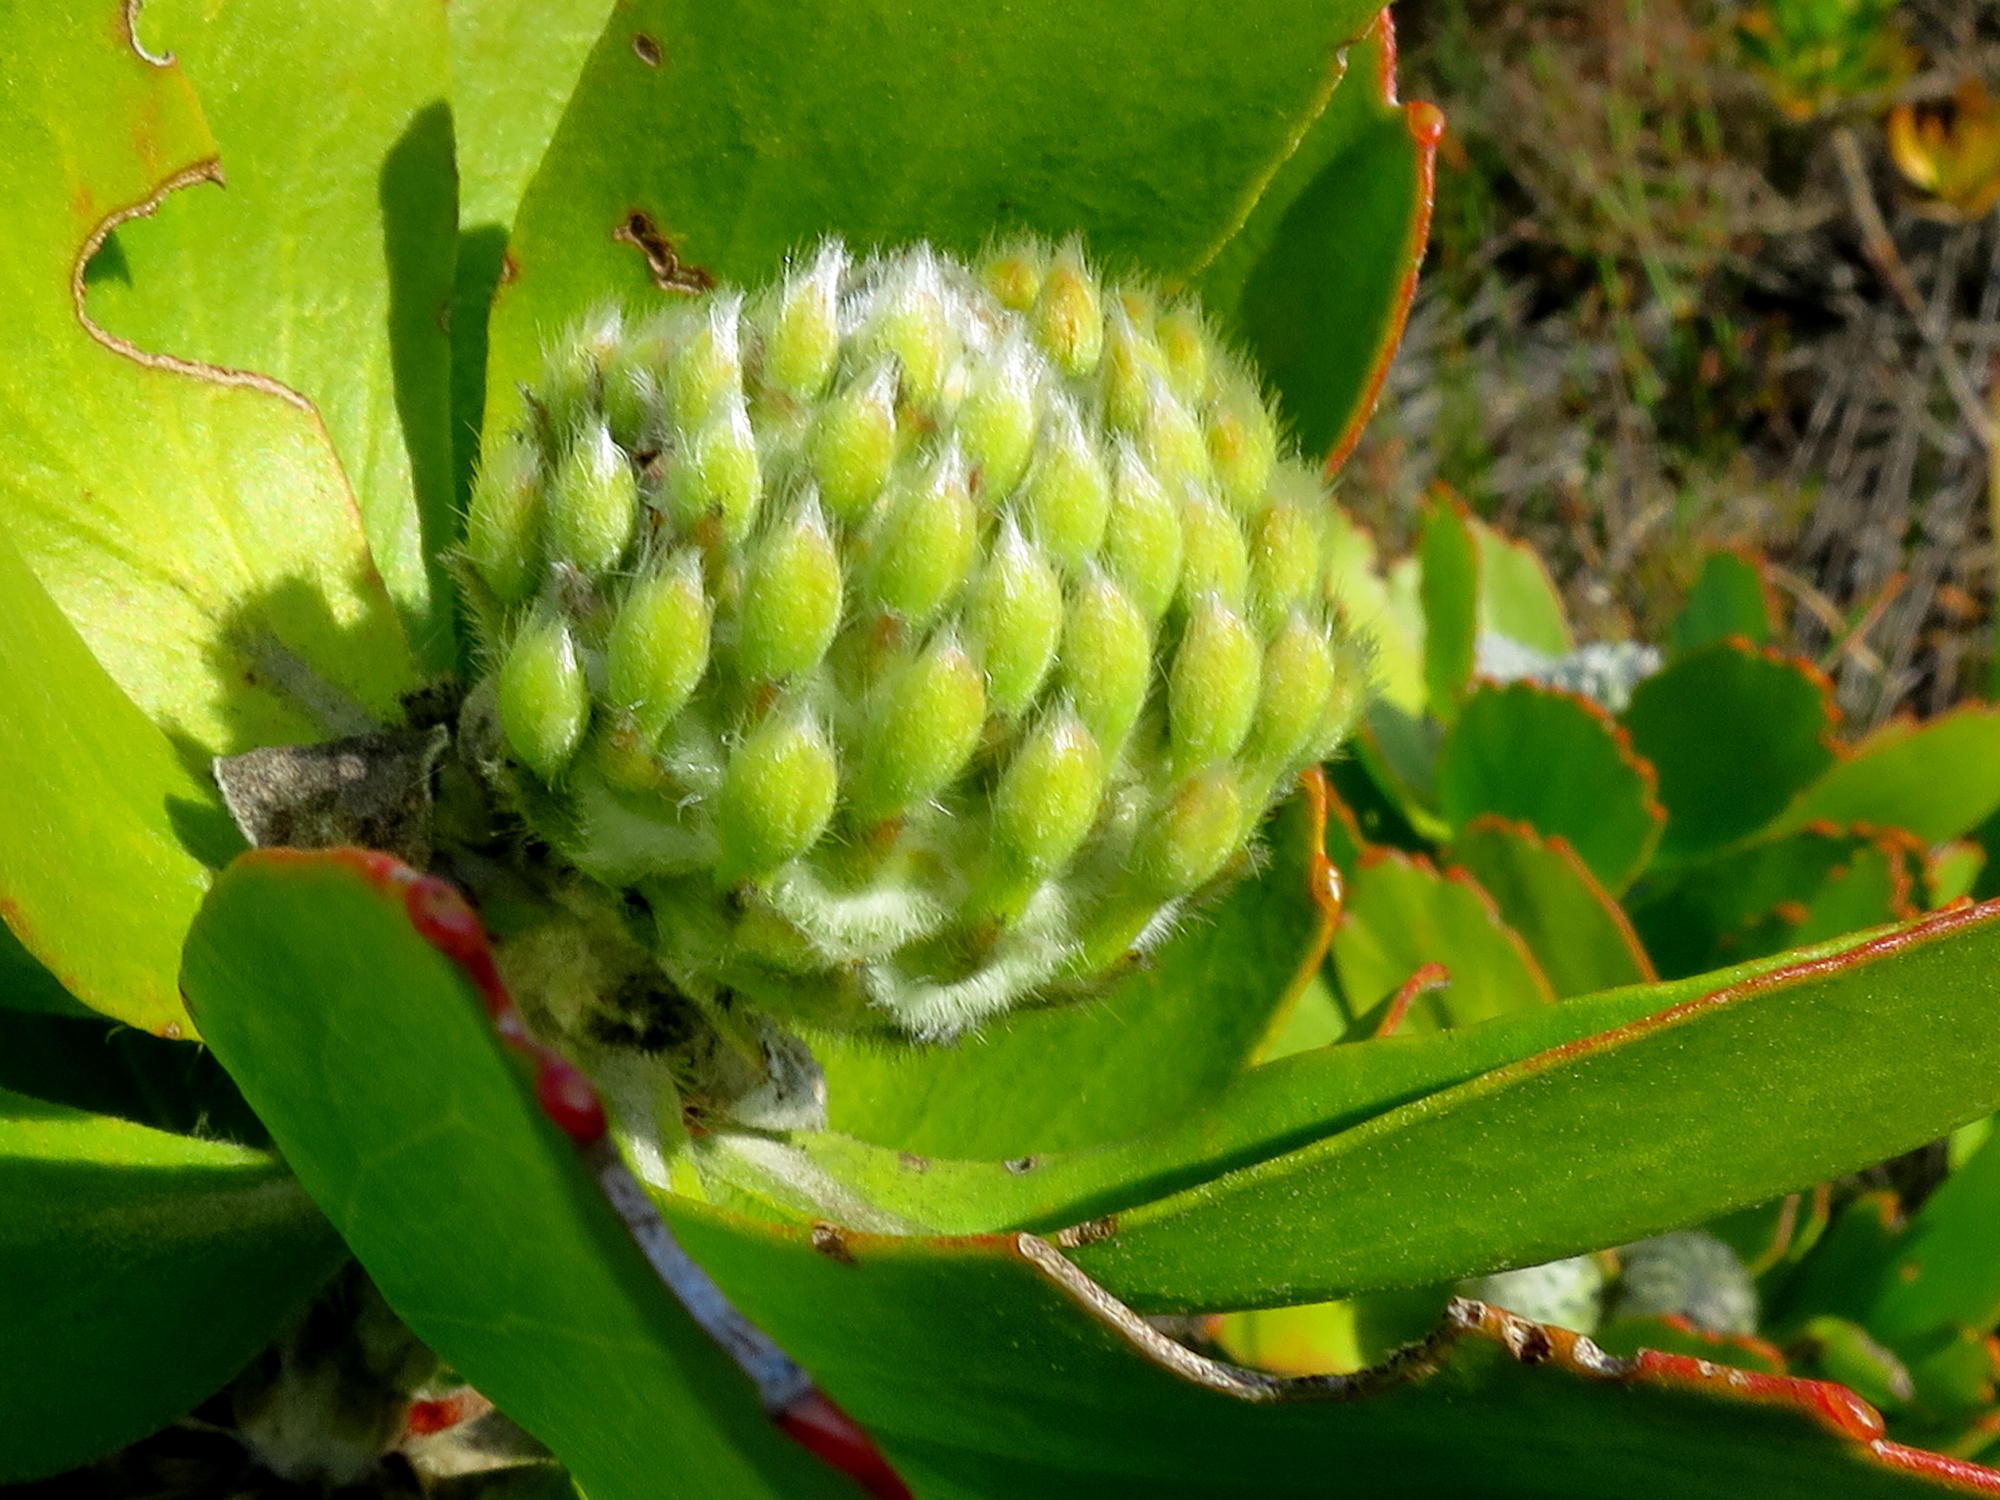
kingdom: Plantae
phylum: Tracheophyta
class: Magnoliopsida
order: Proteales
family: Proteaceae
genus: Leucospermum
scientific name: Leucospermum praecox
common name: Mossel bay pincushion
